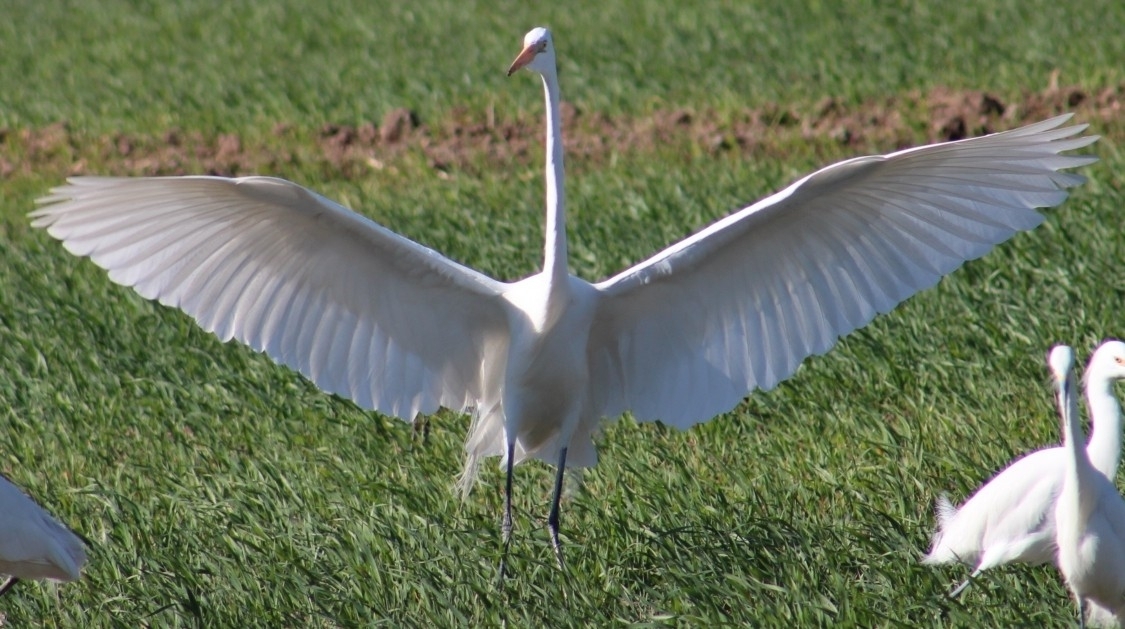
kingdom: Animalia
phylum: Chordata
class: Aves
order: Pelecaniformes
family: Ardeidae
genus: Ardea
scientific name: Ardea alba
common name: Great egret
